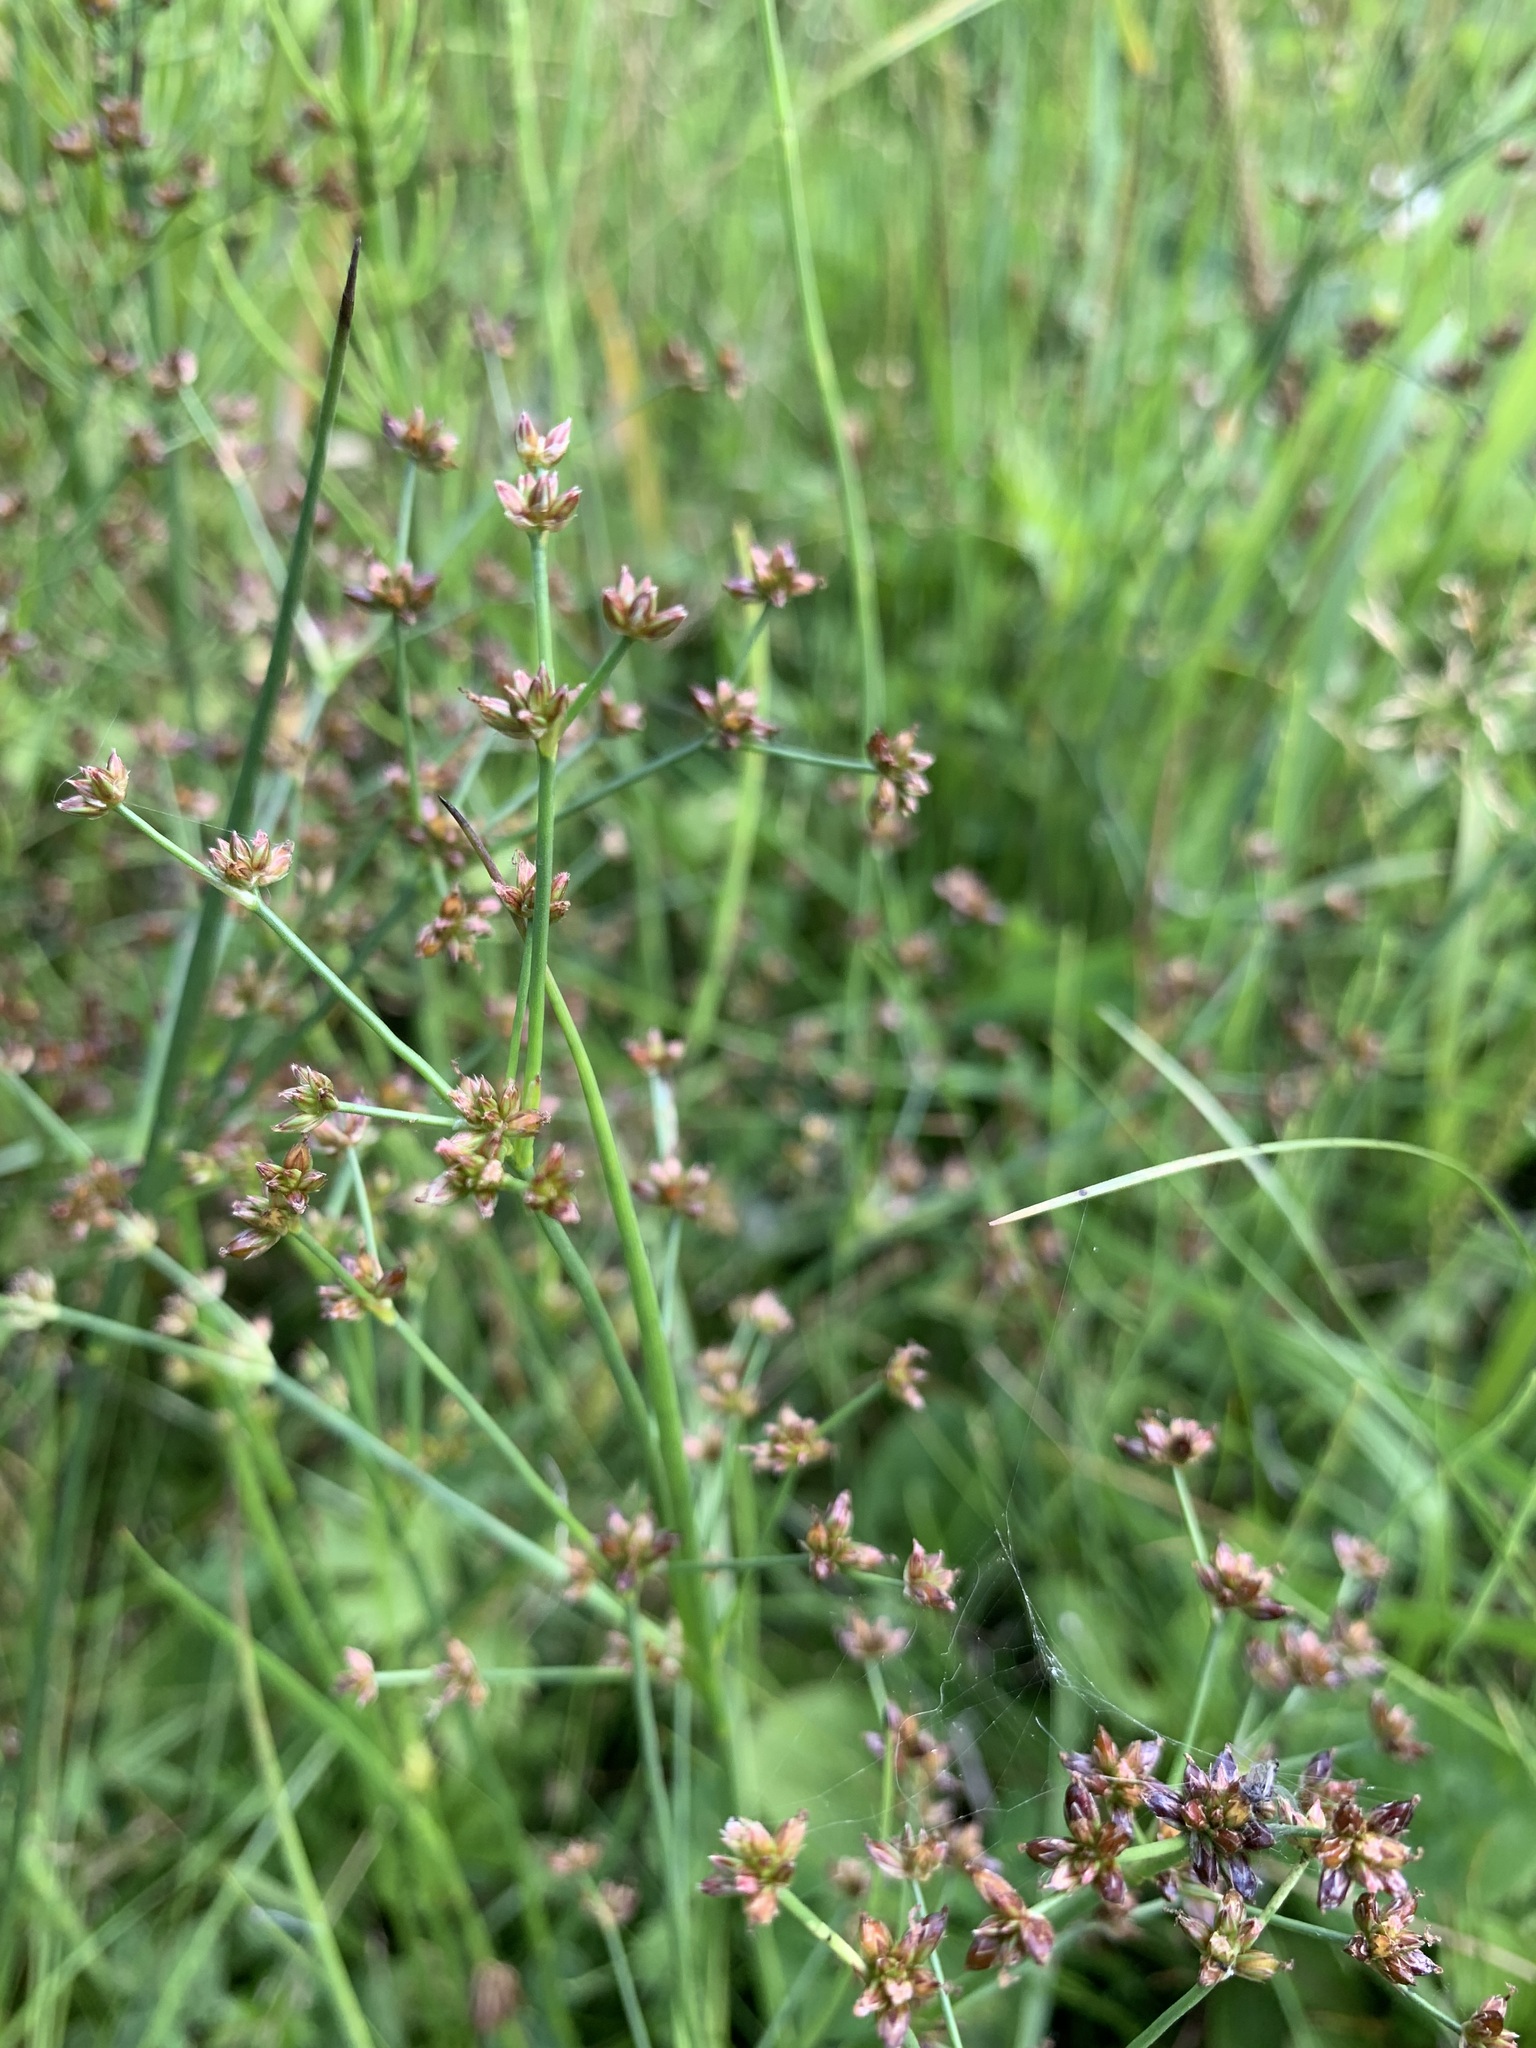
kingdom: Plantae
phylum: Tracheophyta
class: Liliopsida
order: Poales
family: Juncaceae
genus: Juncus
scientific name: Juncus articulatus
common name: Jointed rush
